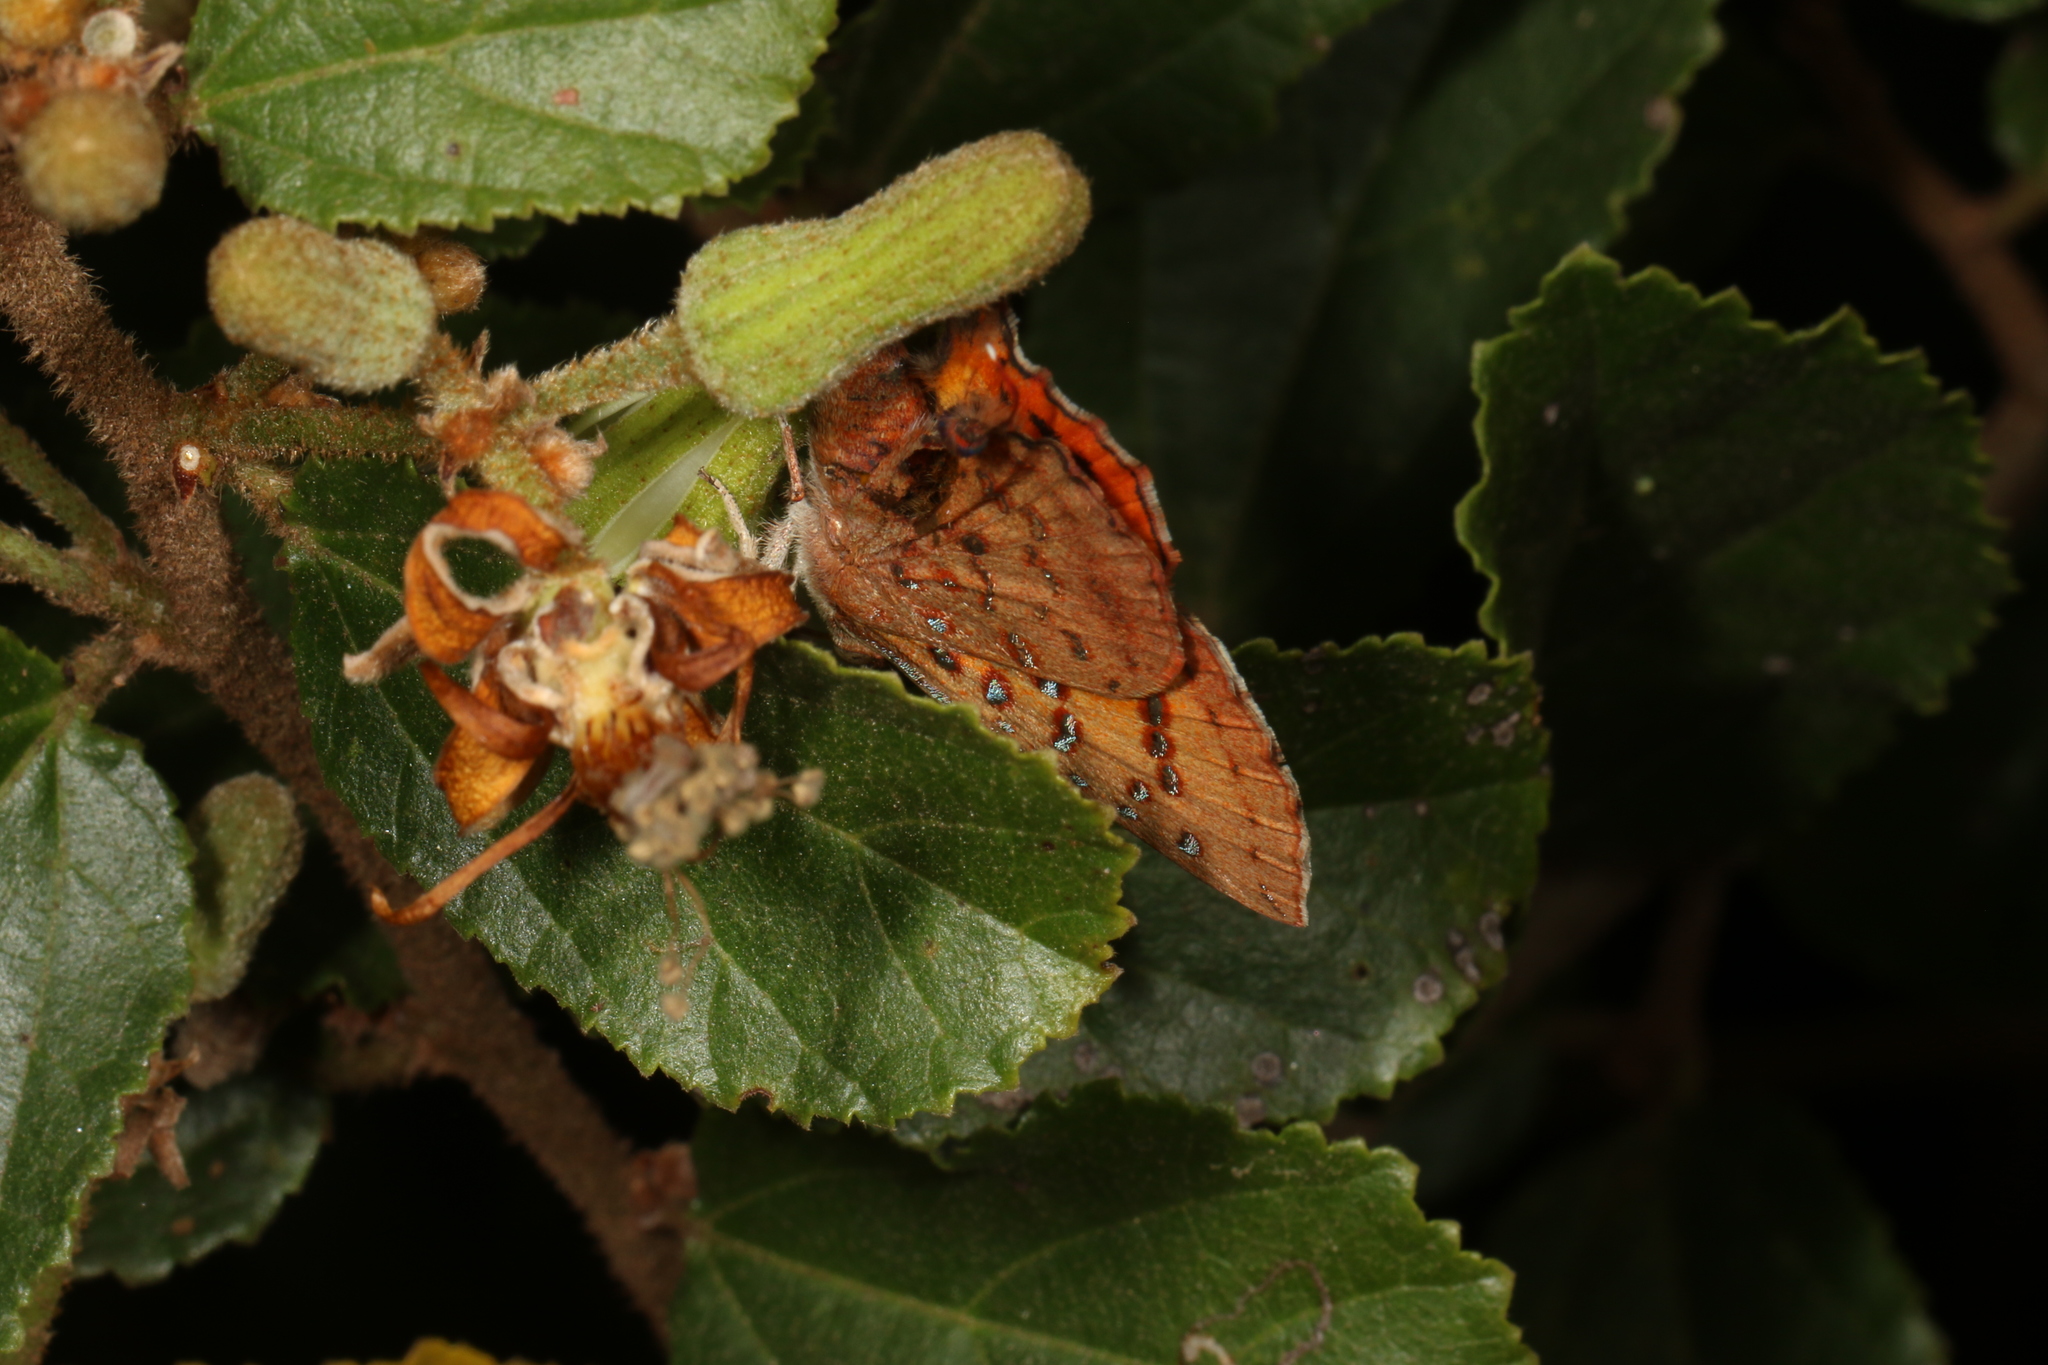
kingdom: Animalia
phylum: Arthropoda
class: Insecta
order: Lepidoptera
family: Lycaenidae
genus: Axiocerses
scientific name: Axiocerses perion
